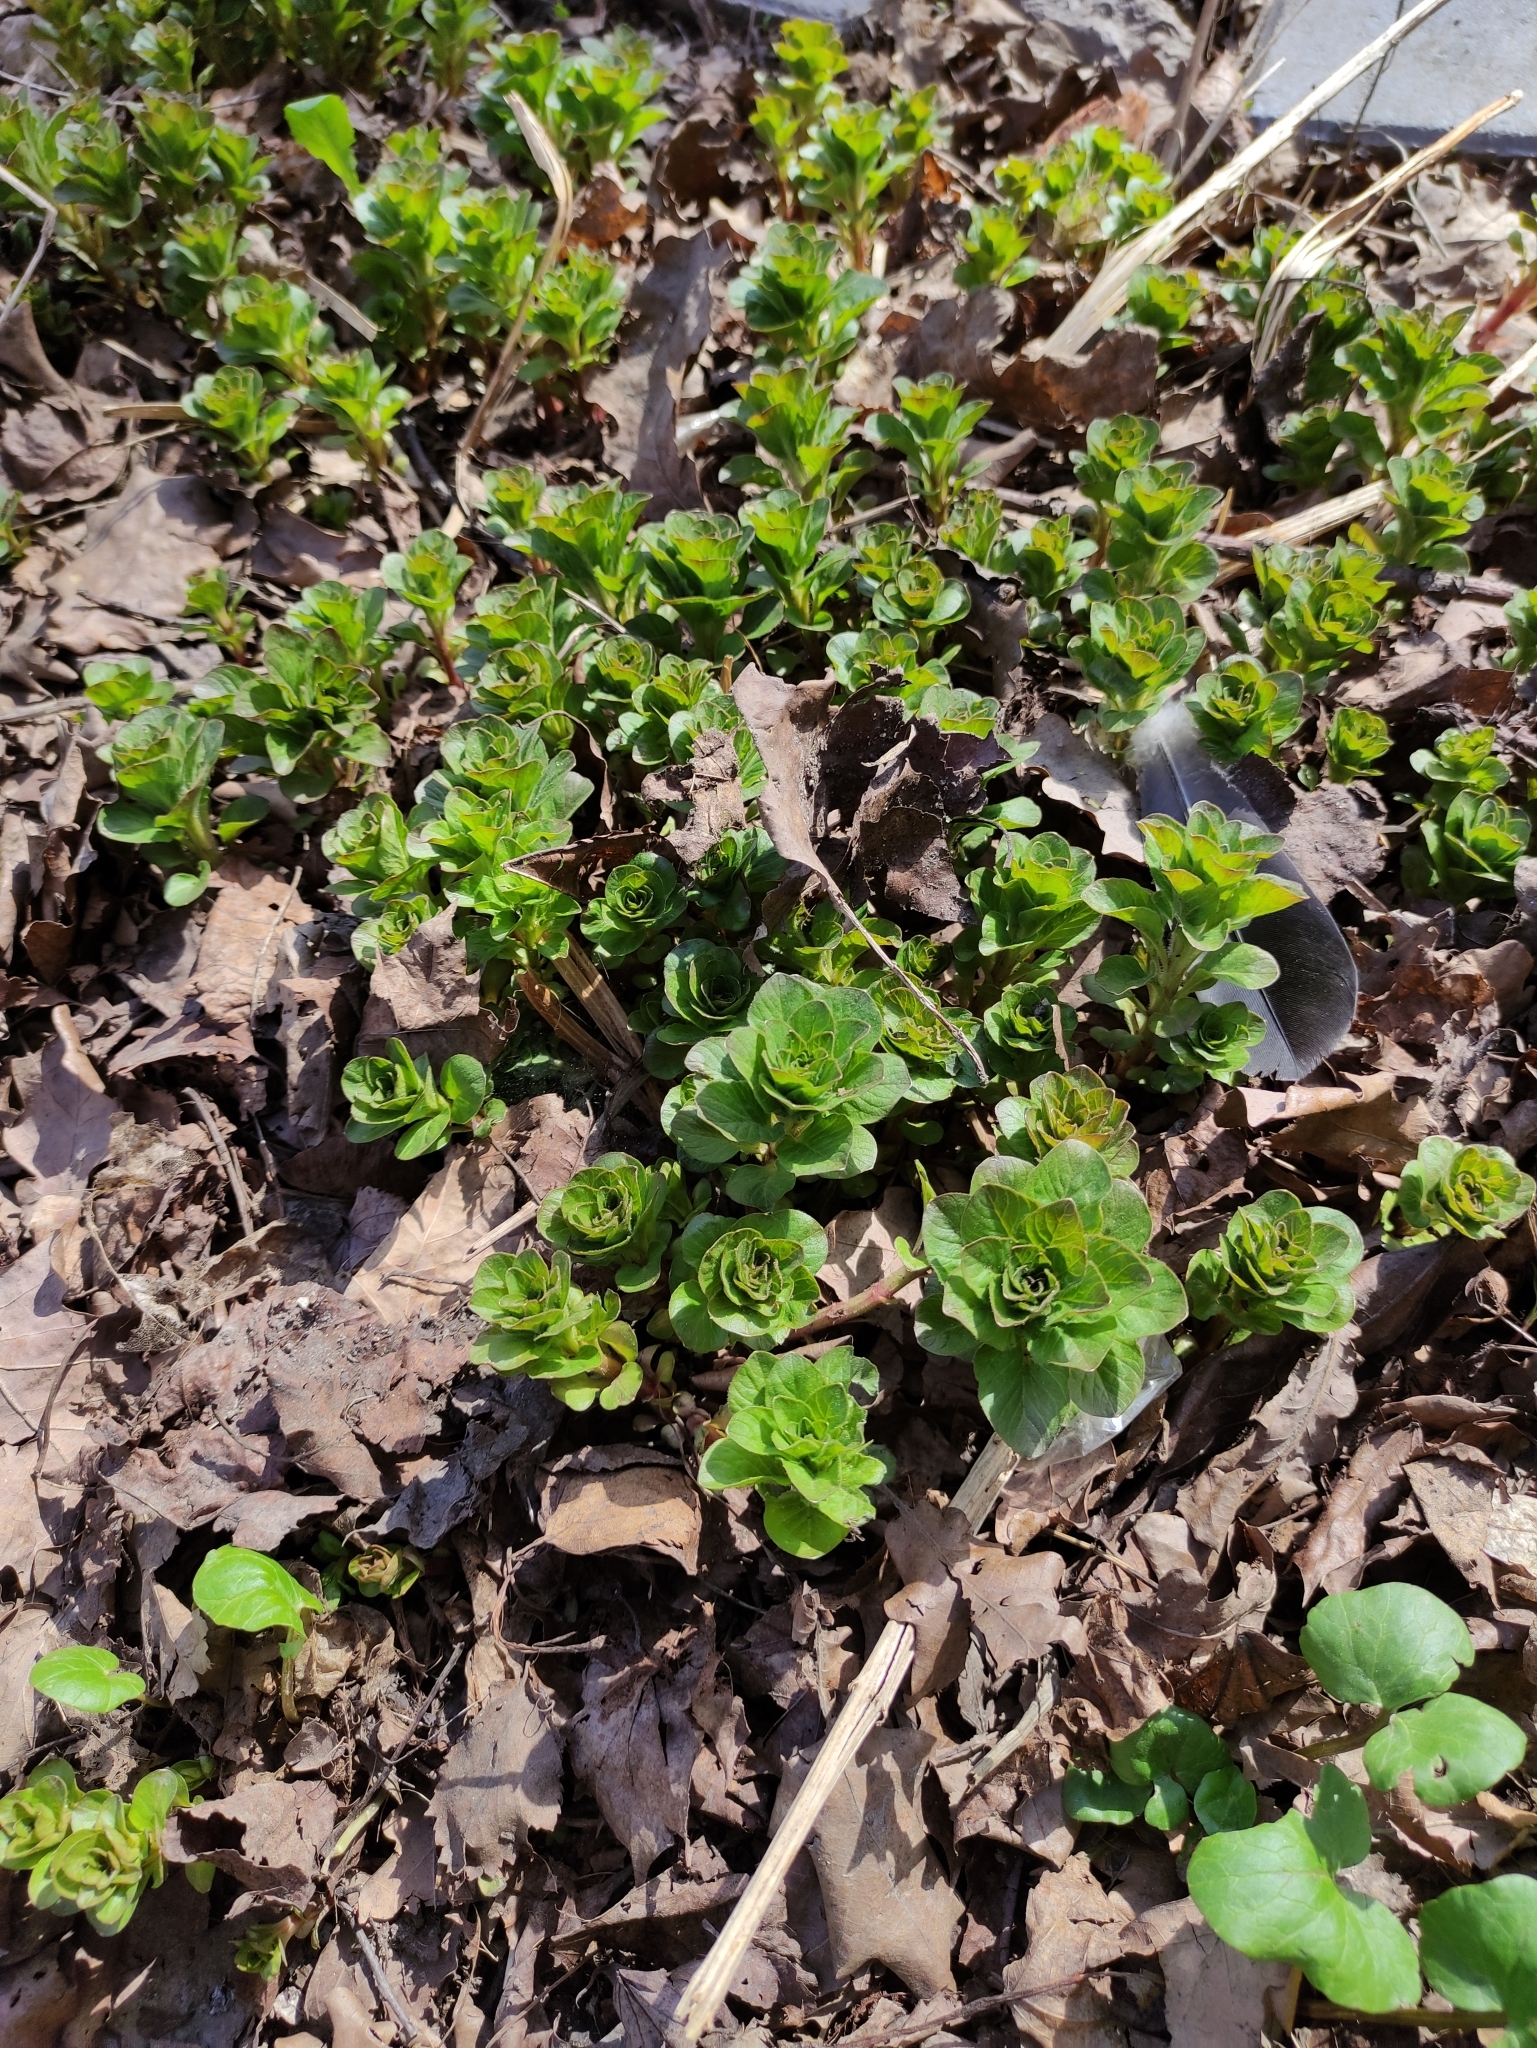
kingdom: Plantae
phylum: Tracheophyta
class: Magnoliopsida
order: Ericales
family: Primulaceae
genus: Lysimachia
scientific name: Lysimachia punctata
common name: Dotted loosestrife
